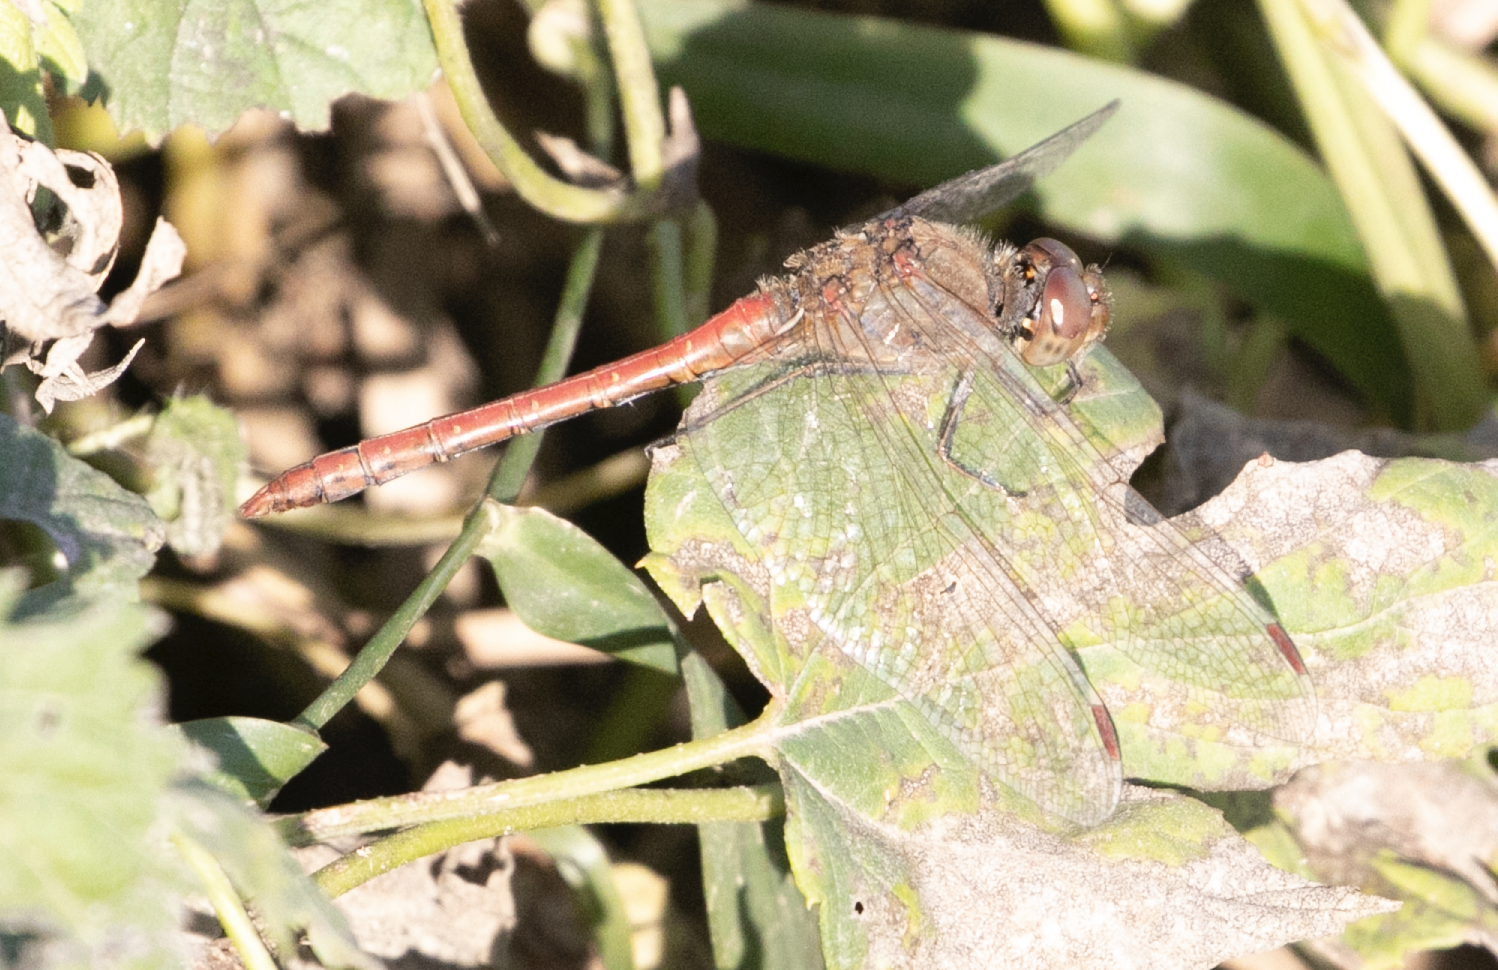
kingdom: Animalia
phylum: Arthropoda
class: Insecta
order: Odonata
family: Libellulidae
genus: Sympetrum
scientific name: Sympetrum striolatum
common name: Common darter
